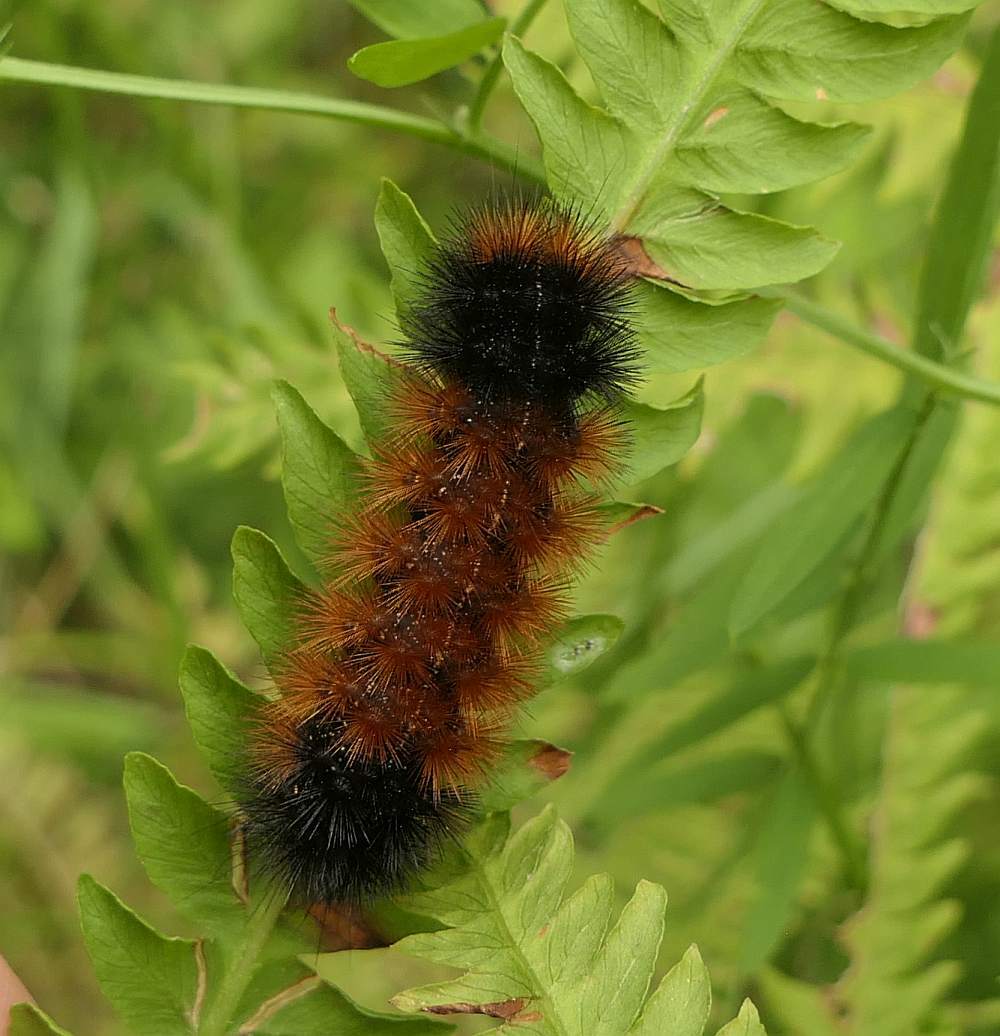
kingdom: Animalia
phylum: Arthropoda
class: Insecta
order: Lepidoptera
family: Erebidae
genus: Pyrrharctia
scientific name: Pyrrharctia isabella
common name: Isabella tiger moth
